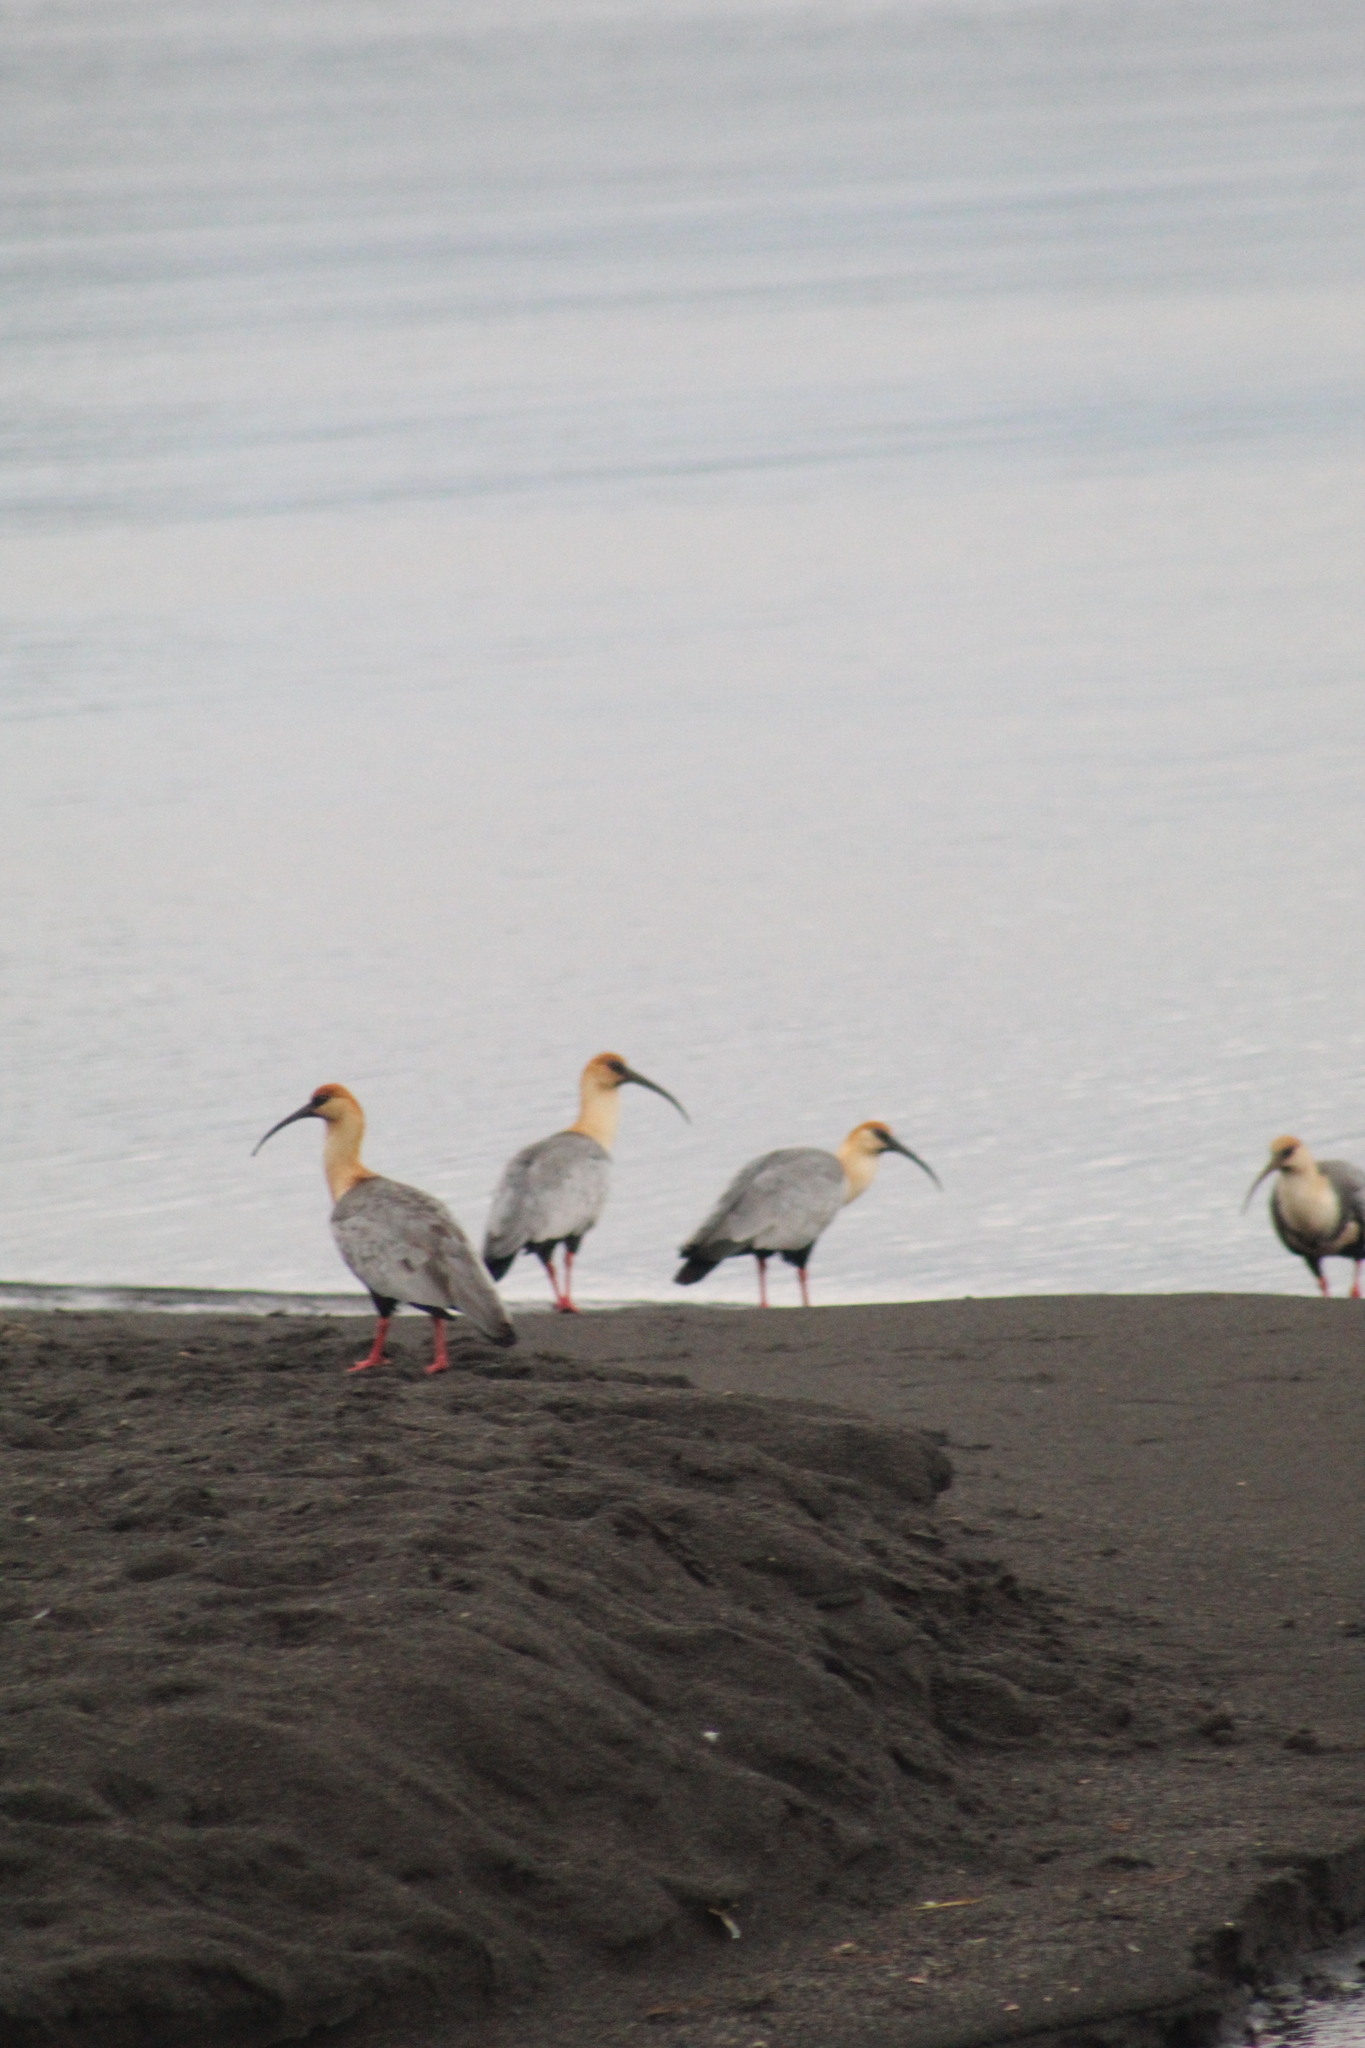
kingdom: Animalia
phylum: Chordata
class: Aves
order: Pelecaniformes
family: Threskiornithidae
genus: Theristicus
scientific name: Theristicus melanopis
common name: Black-faced ibis
